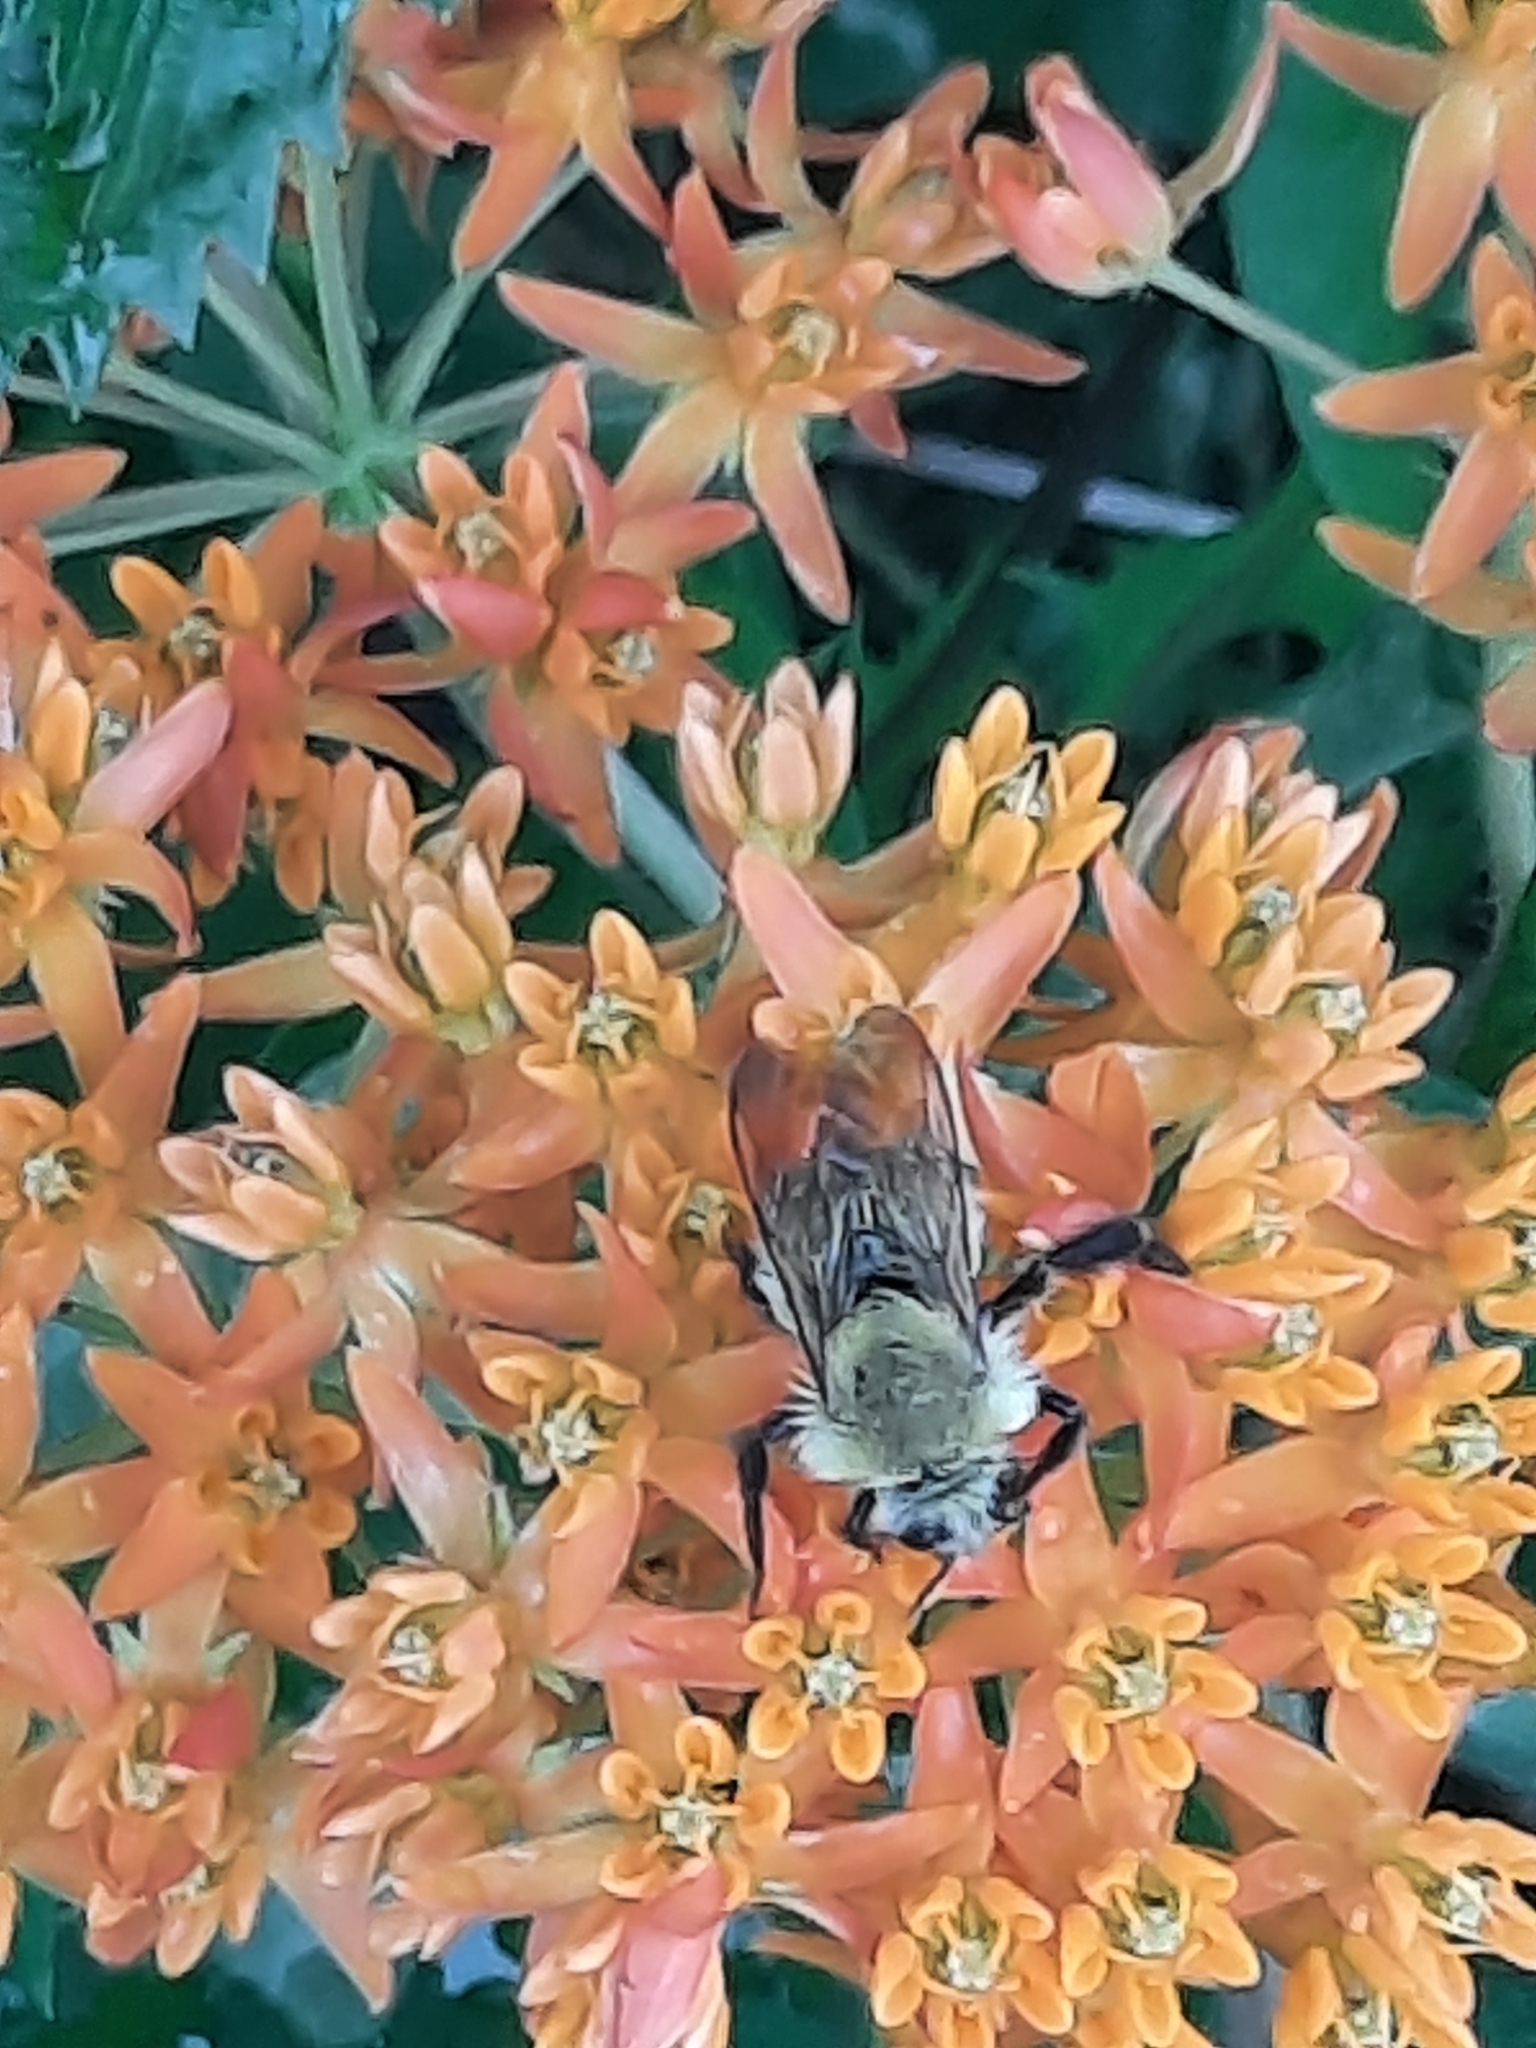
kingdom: Animalia
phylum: Arthropoda
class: Insecta
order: Hymenoptera
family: Apidae
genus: Bombus
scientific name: Bombus perplexus
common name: Confusing bumble bee
